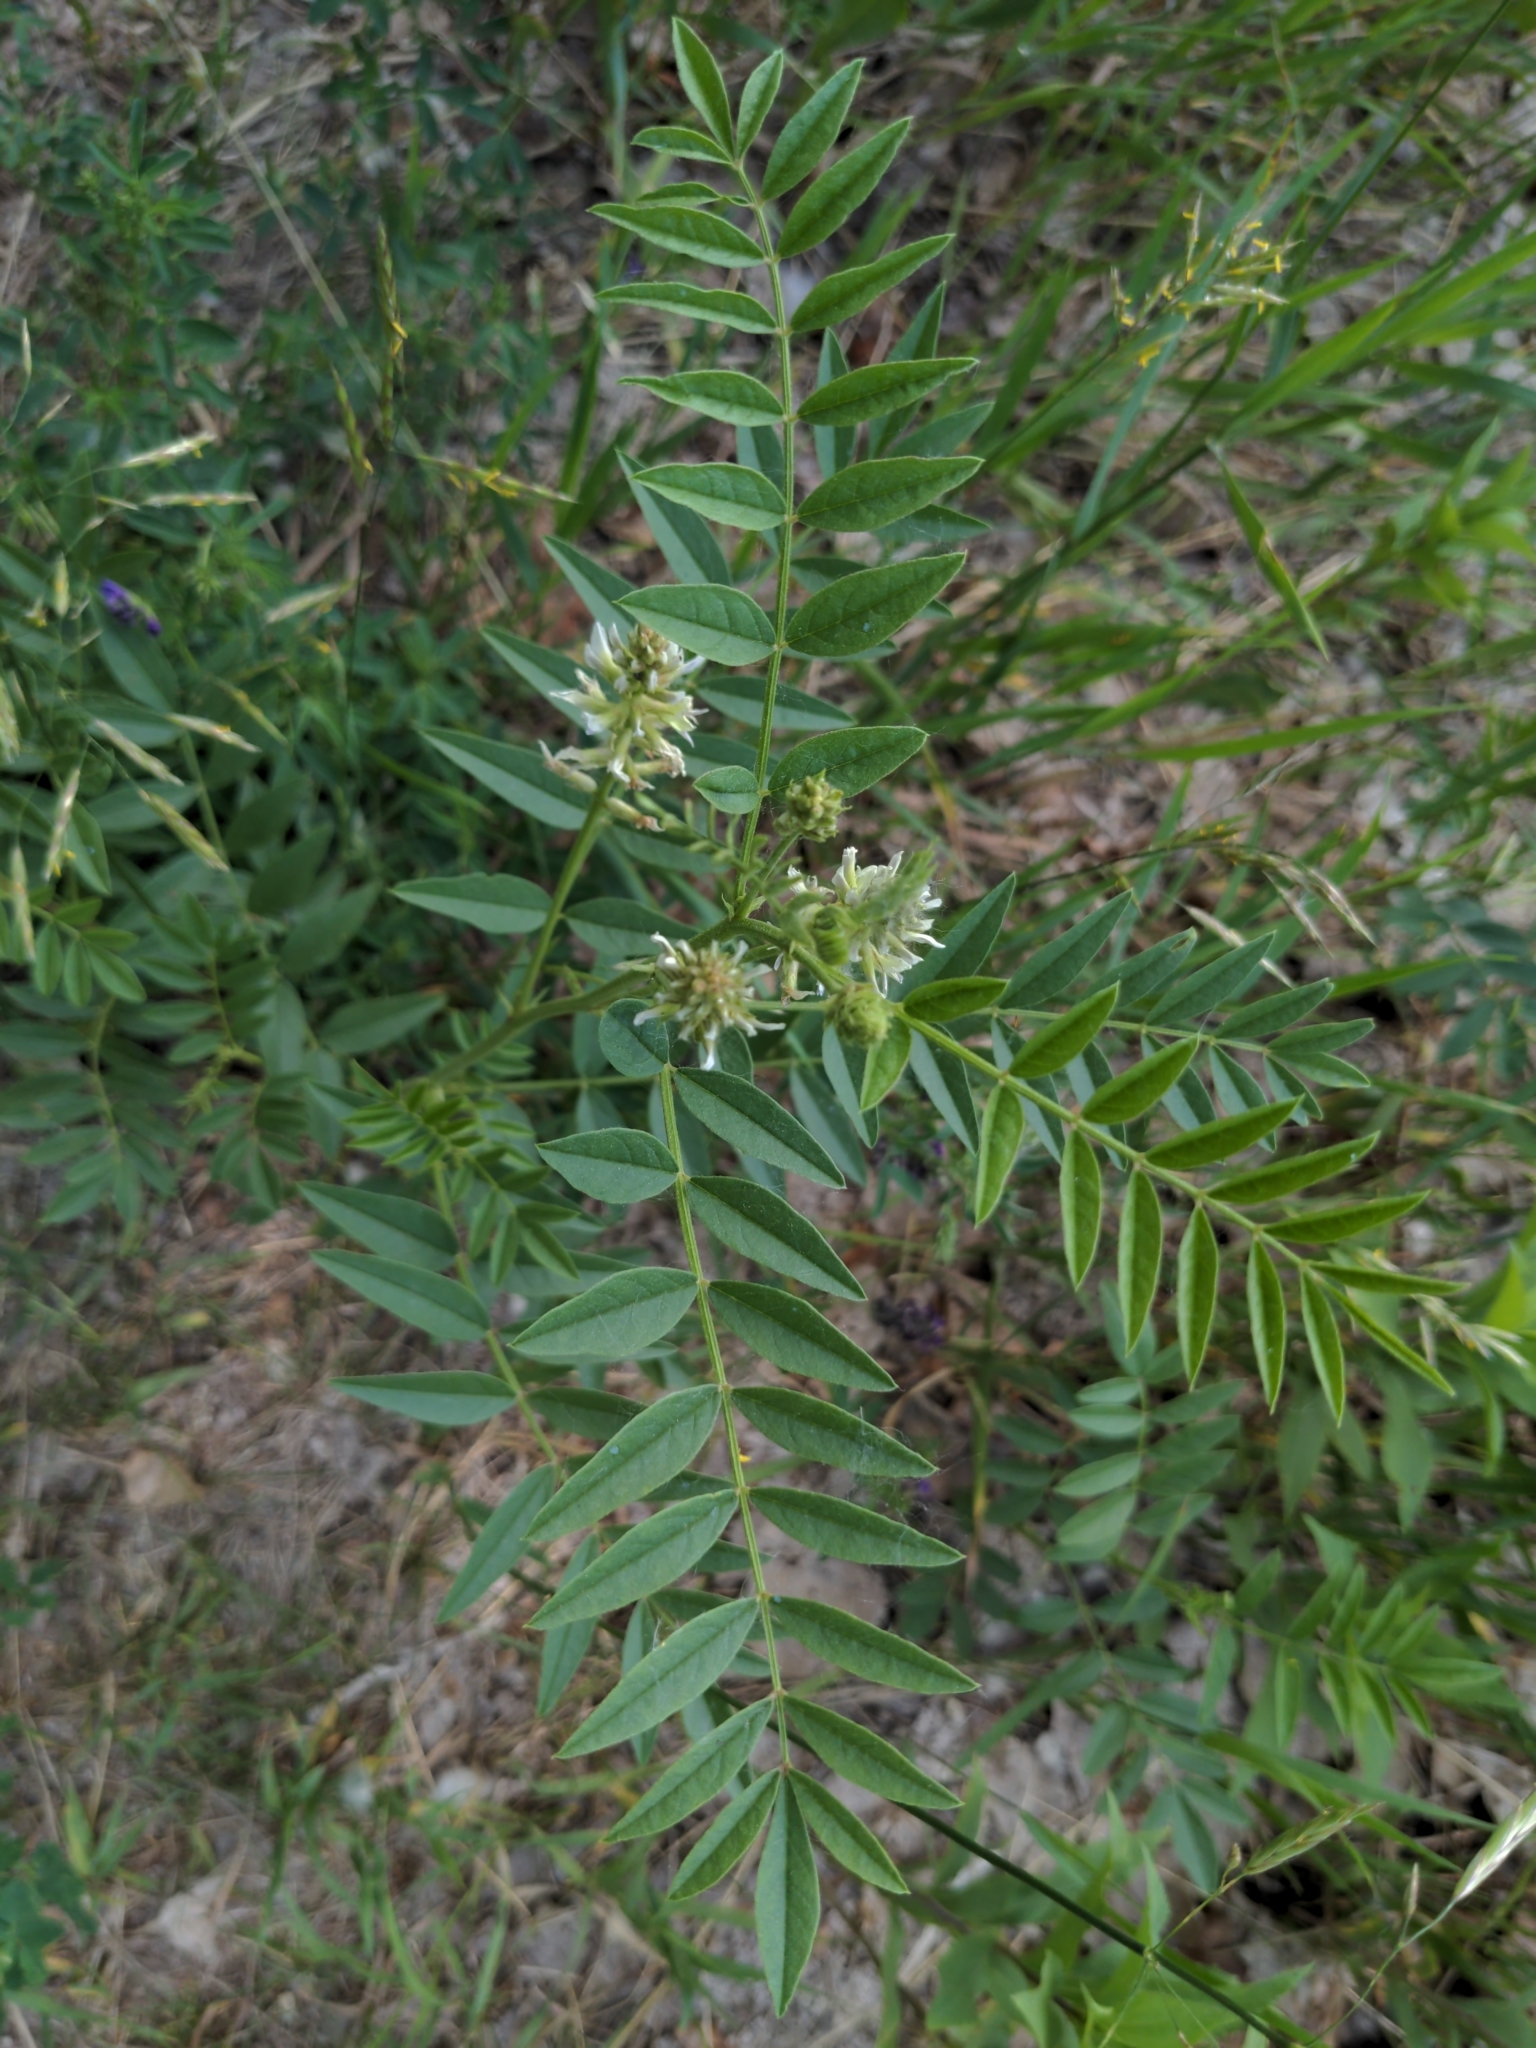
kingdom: Plantae
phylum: Tracheophyta
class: Magnoliopsida
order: Fabales
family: Fabaceae
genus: Glycyrrhiza
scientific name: Glycyrrhiza lepidota
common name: American liquorice
